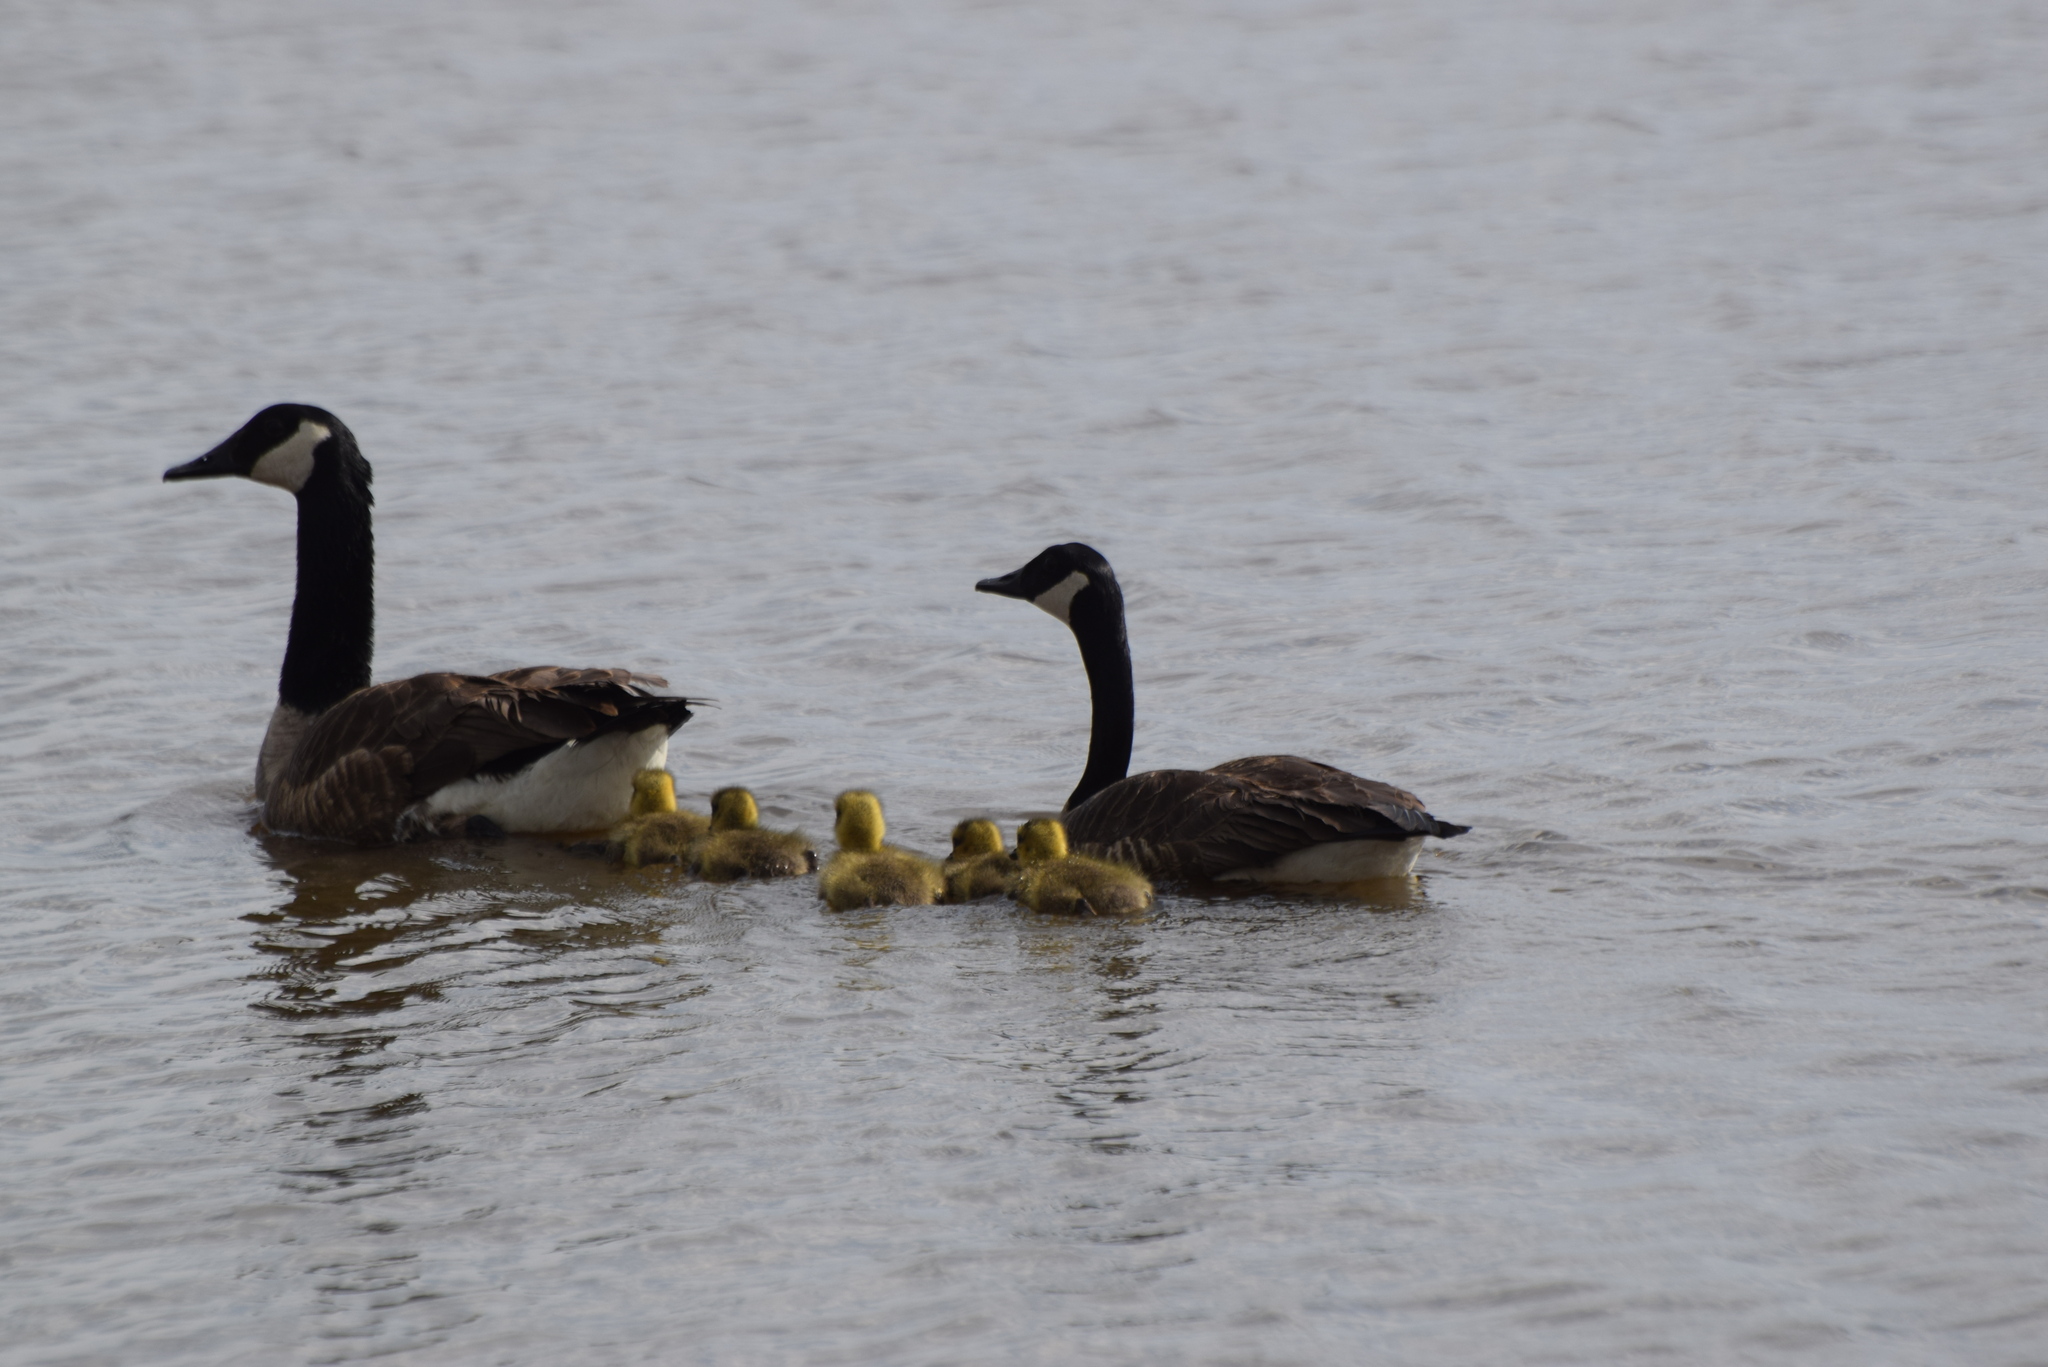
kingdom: Animalia
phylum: Chordata
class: Aves
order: Anseriformes
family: Anatidae
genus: Branta
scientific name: Branta canadensis
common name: Canada goose
